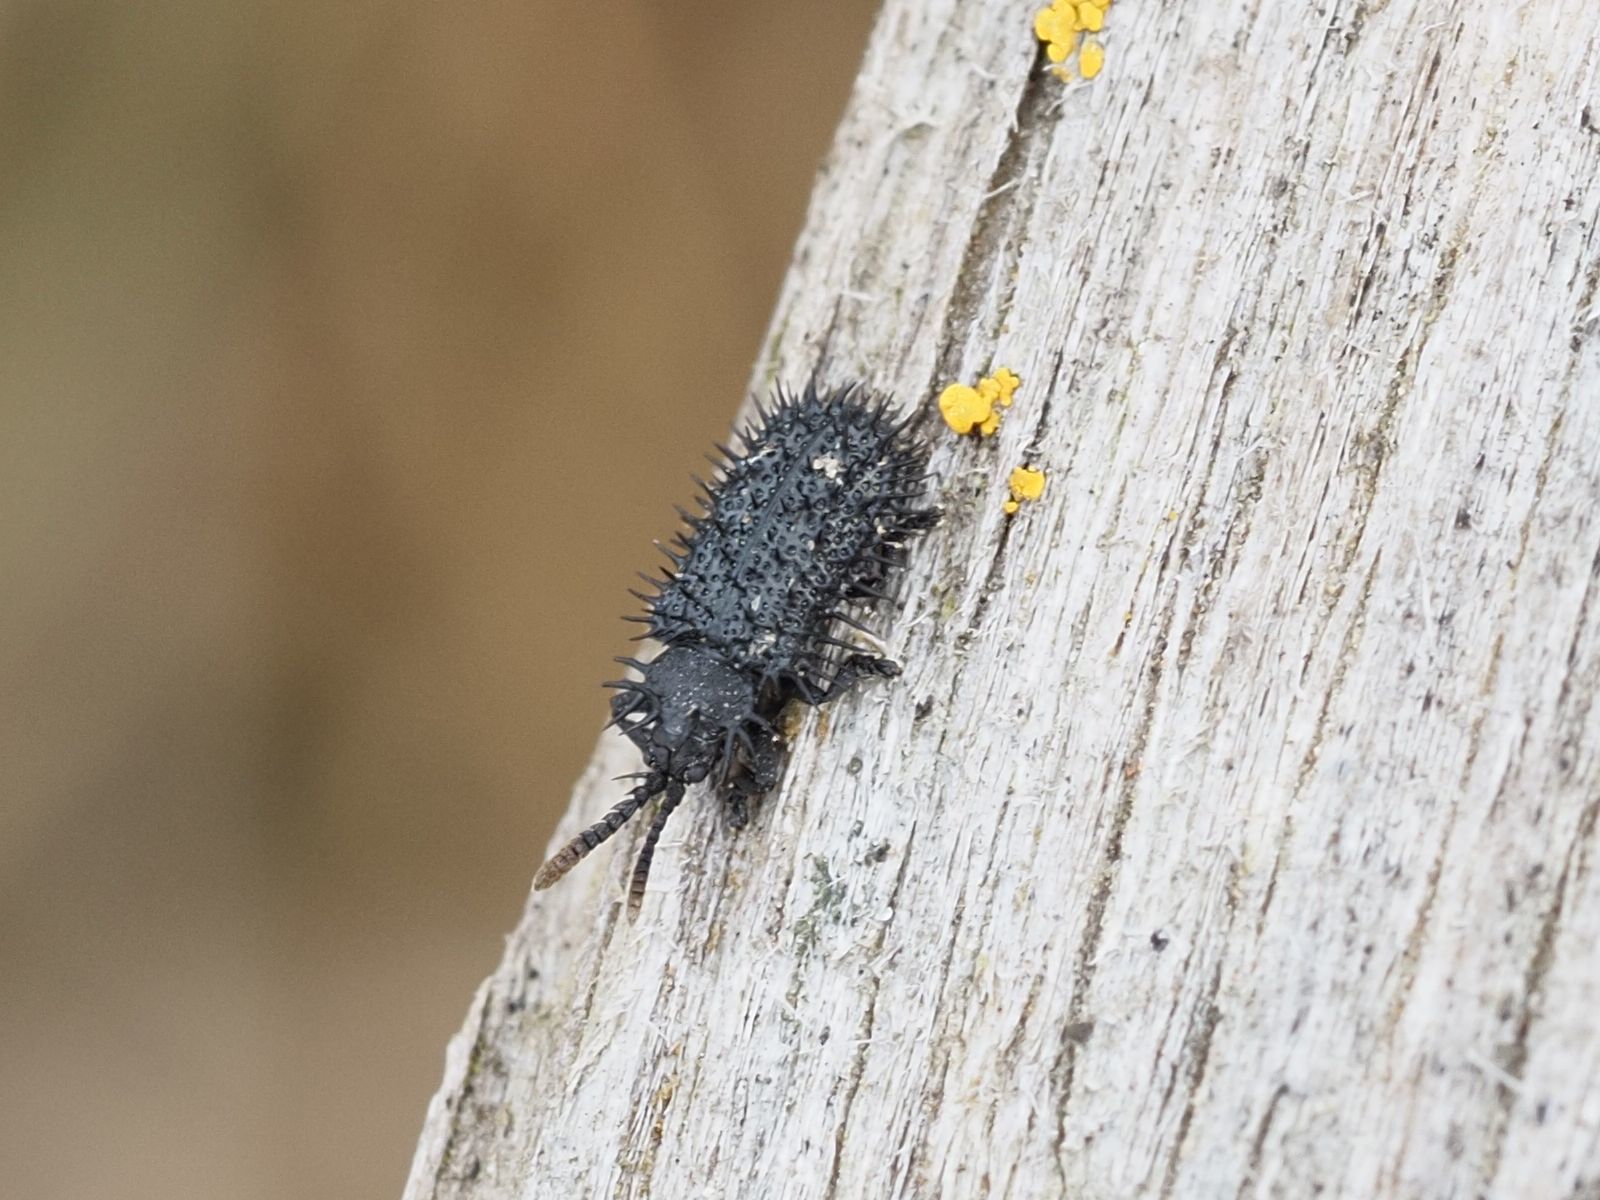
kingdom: Animalia
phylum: Arthropoda
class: Insecta
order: Coleoptera
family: Chrysomelidae
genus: Hispa
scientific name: Hispa atra
